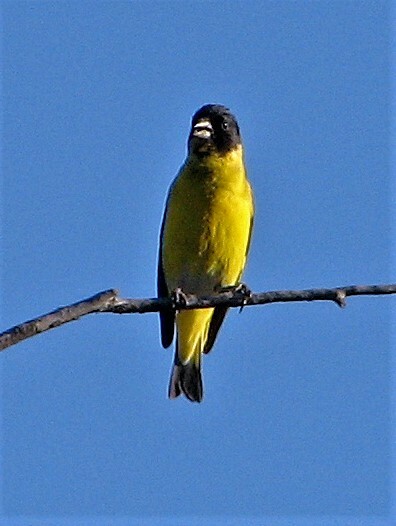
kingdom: Animalia
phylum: Chordata
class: Aves
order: Passeriformes
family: Fringillidae
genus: Spinus
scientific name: Spinus magellanicus
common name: Hooded siskin
